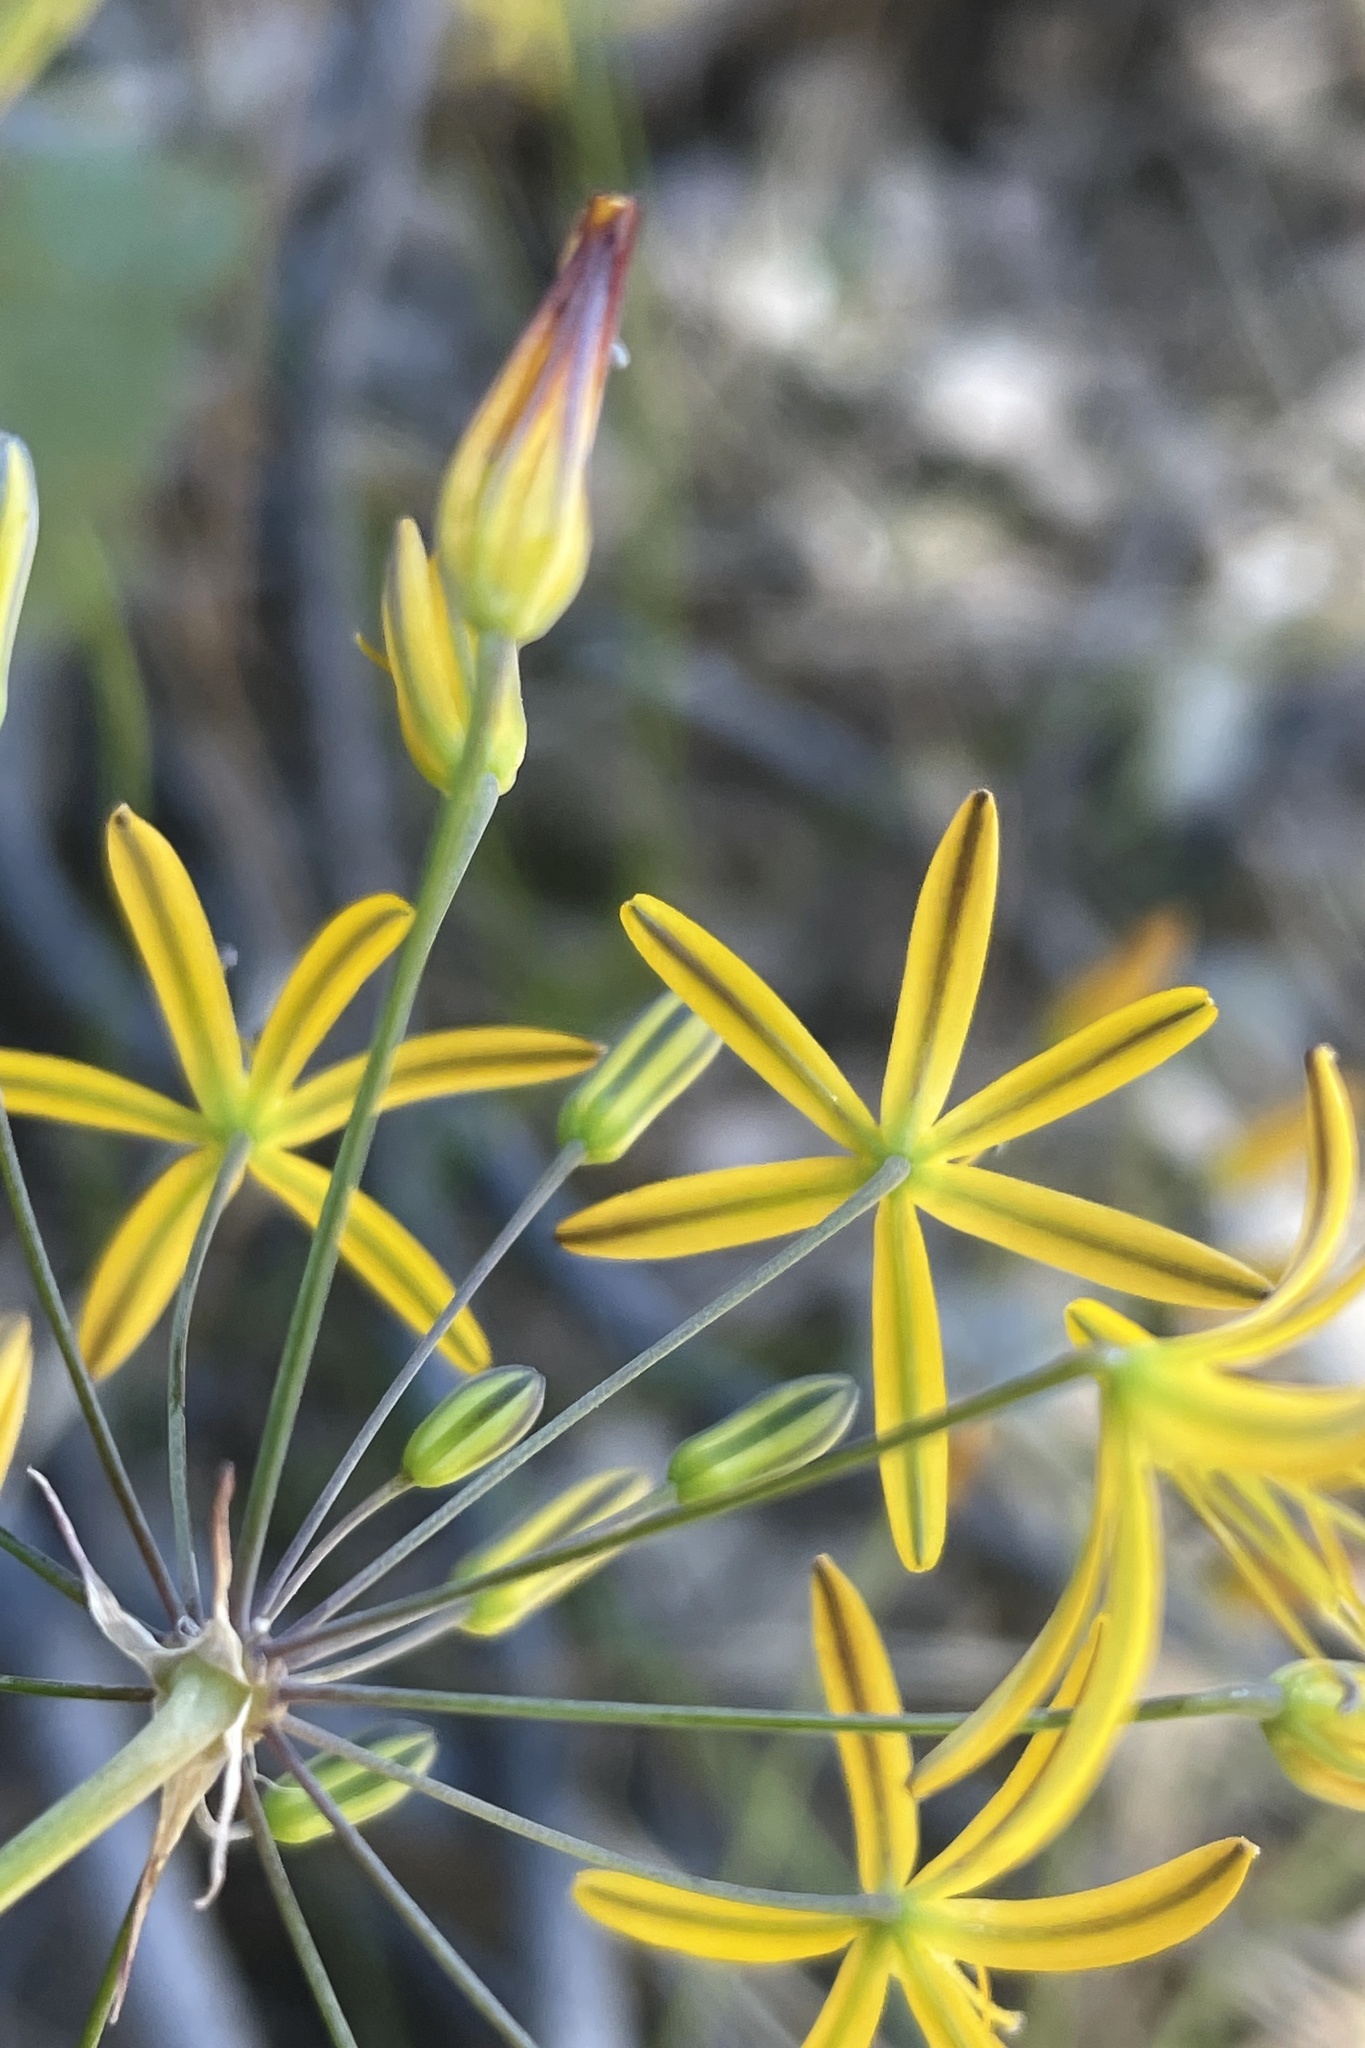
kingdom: Plantae
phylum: Tracheophyta
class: Liliopsida
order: Asparagales
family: Asparagaceae
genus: Bloomeria
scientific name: Bloomeria crocea
